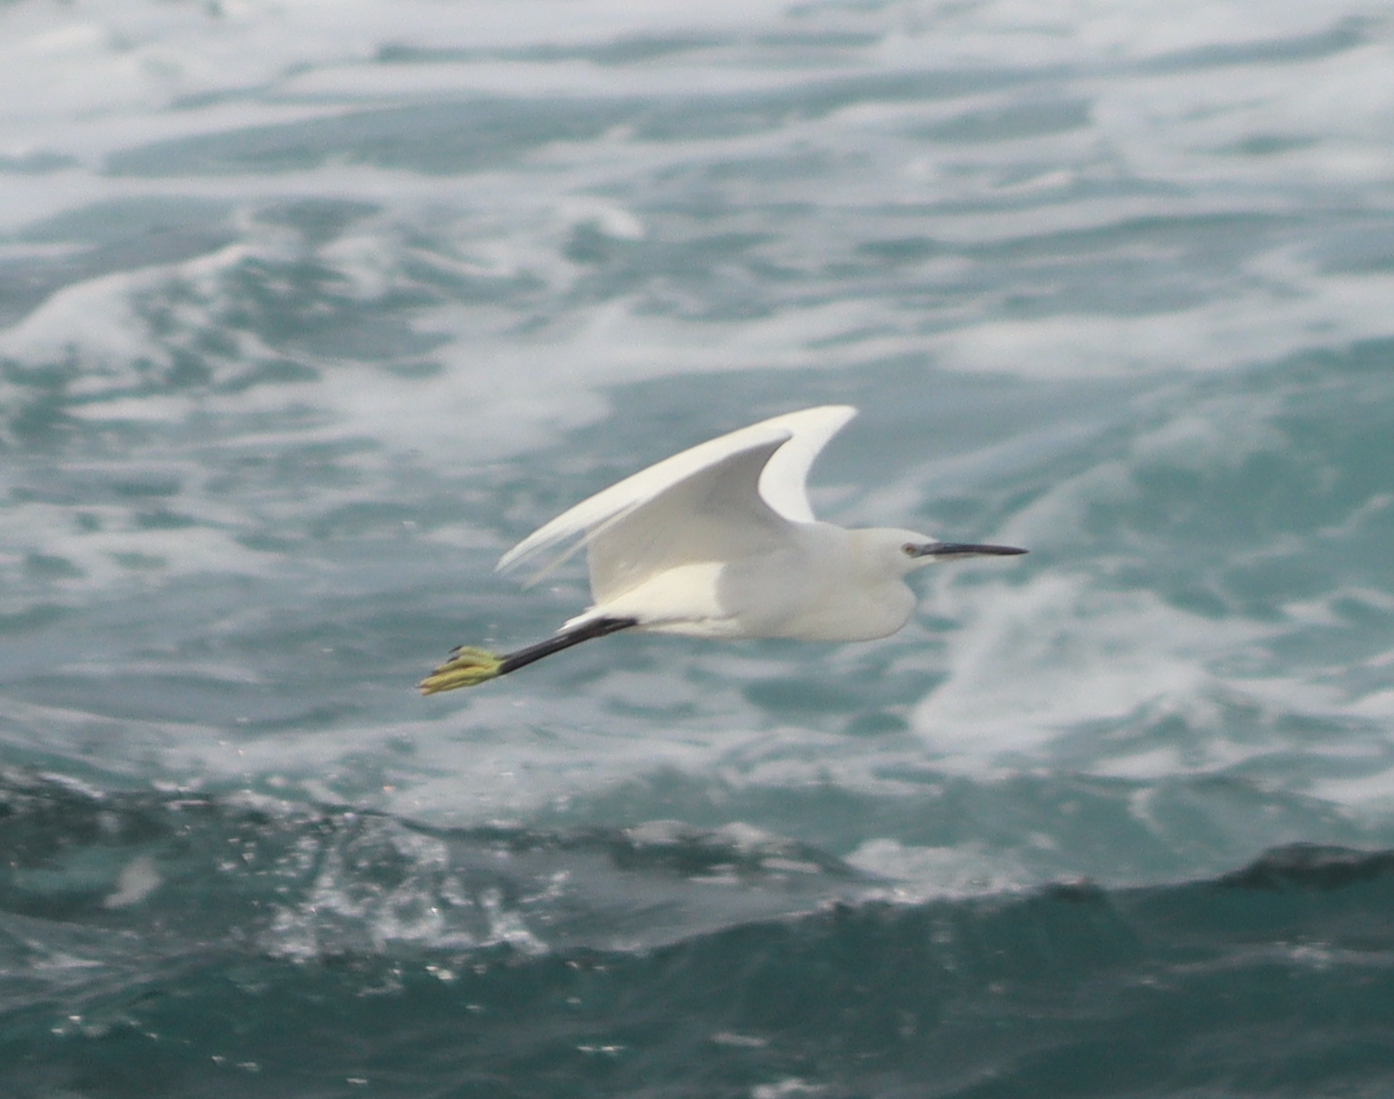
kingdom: Animalia
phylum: Chordata
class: Aves
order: Pelecaniformes
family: Ardeidae
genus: Egretta
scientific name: Egretta garzetta
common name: Little egret
